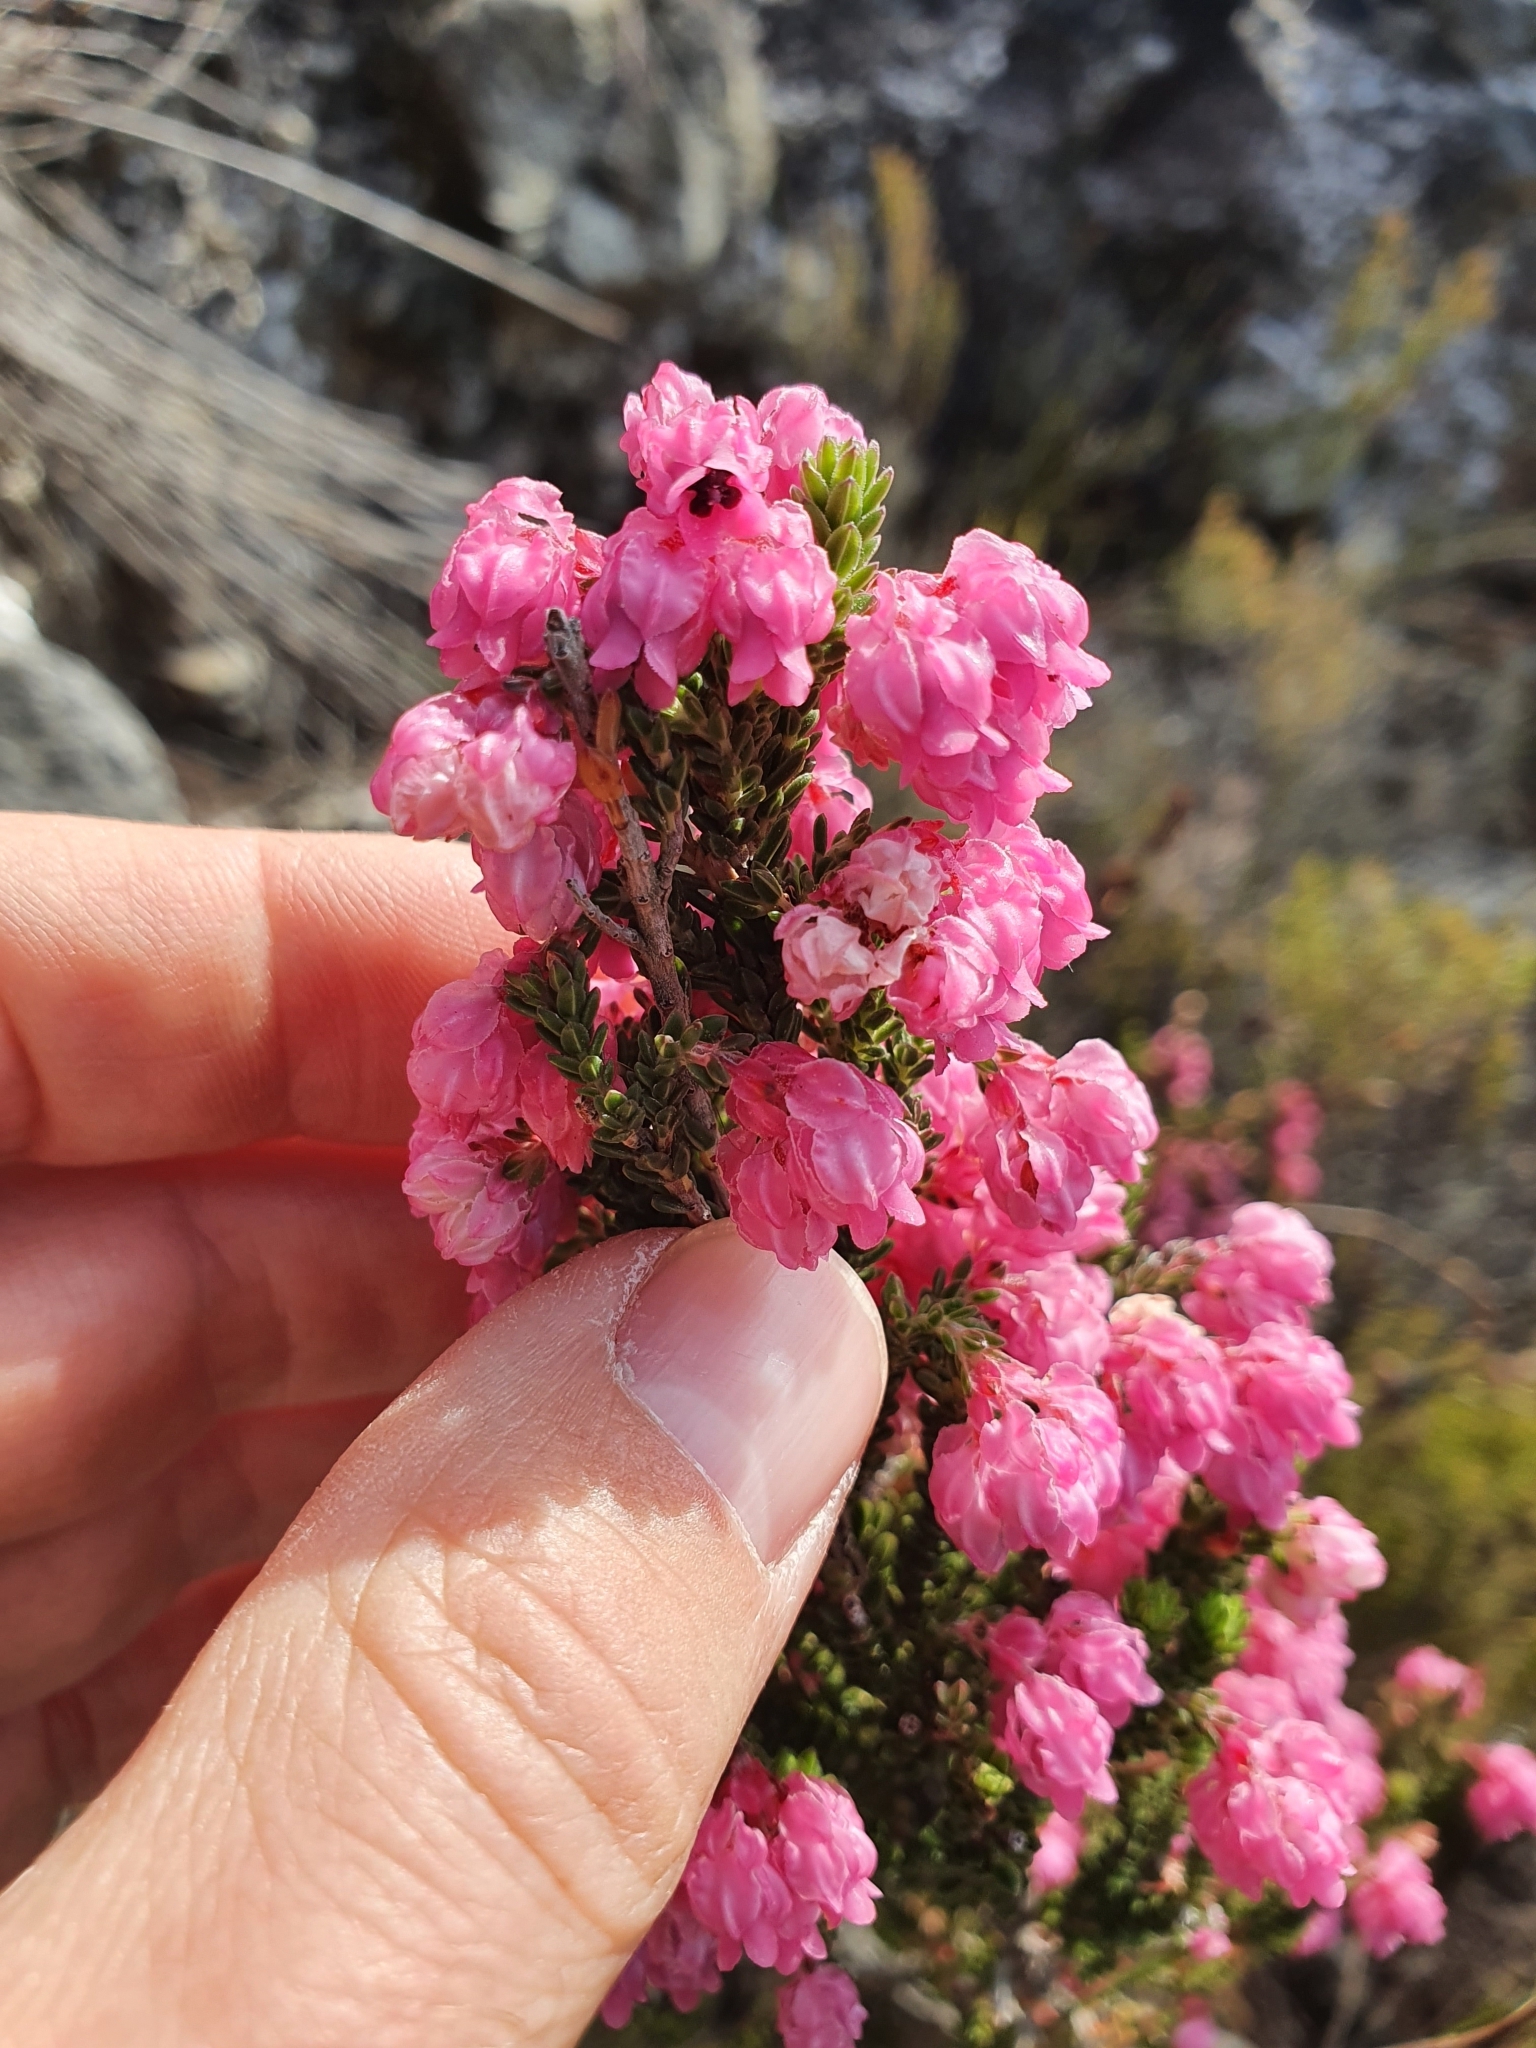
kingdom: Plantae
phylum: Tracheophyta
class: Magnoliopsida
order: Ericales
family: Ericaceae
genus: Erica
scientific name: Erica tegulifolia
